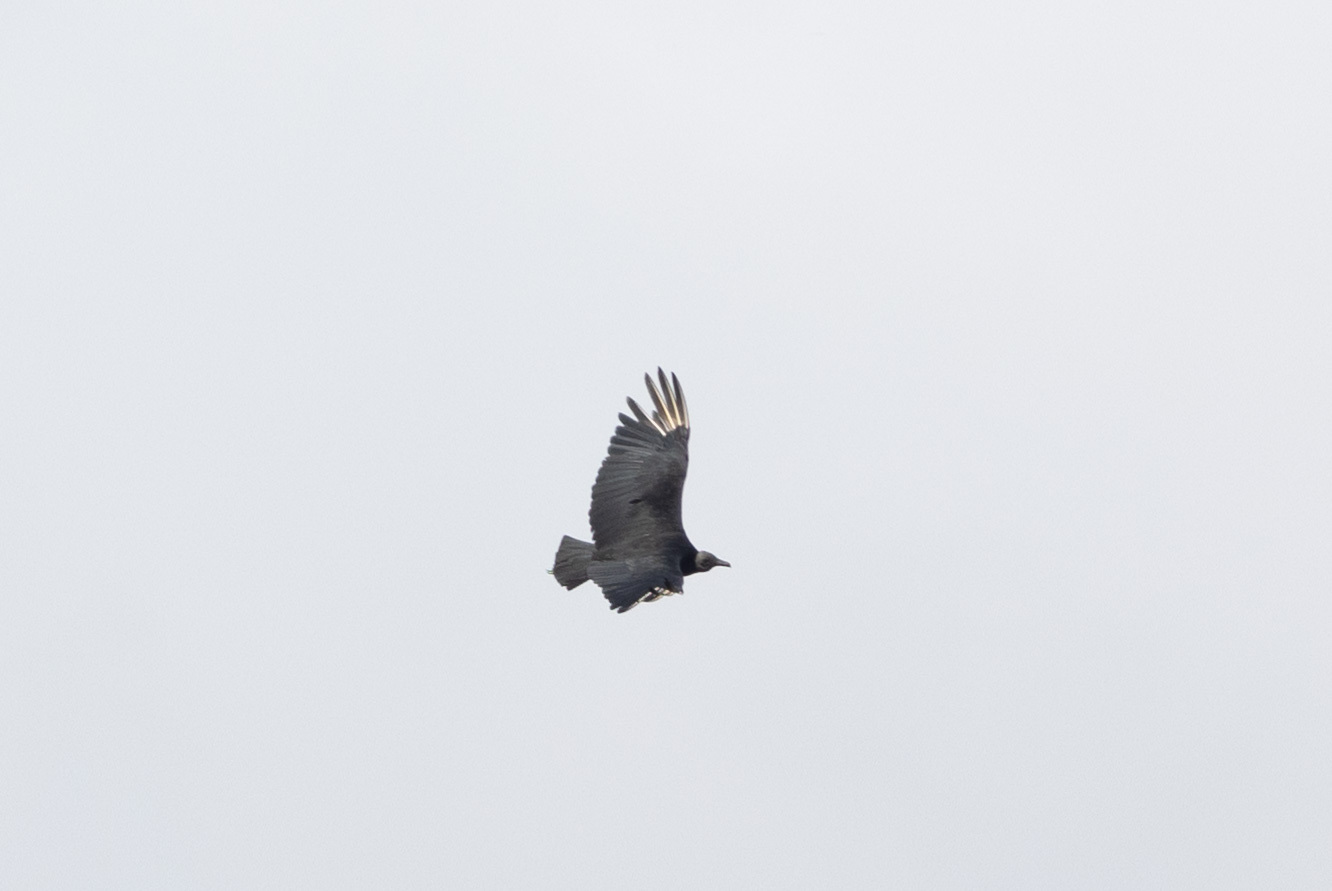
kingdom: Animalia
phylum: Chordata
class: Aves
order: Accipitriformes
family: Cathartidae
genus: Coragyps
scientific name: Coragyps atratus
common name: Black vulture
